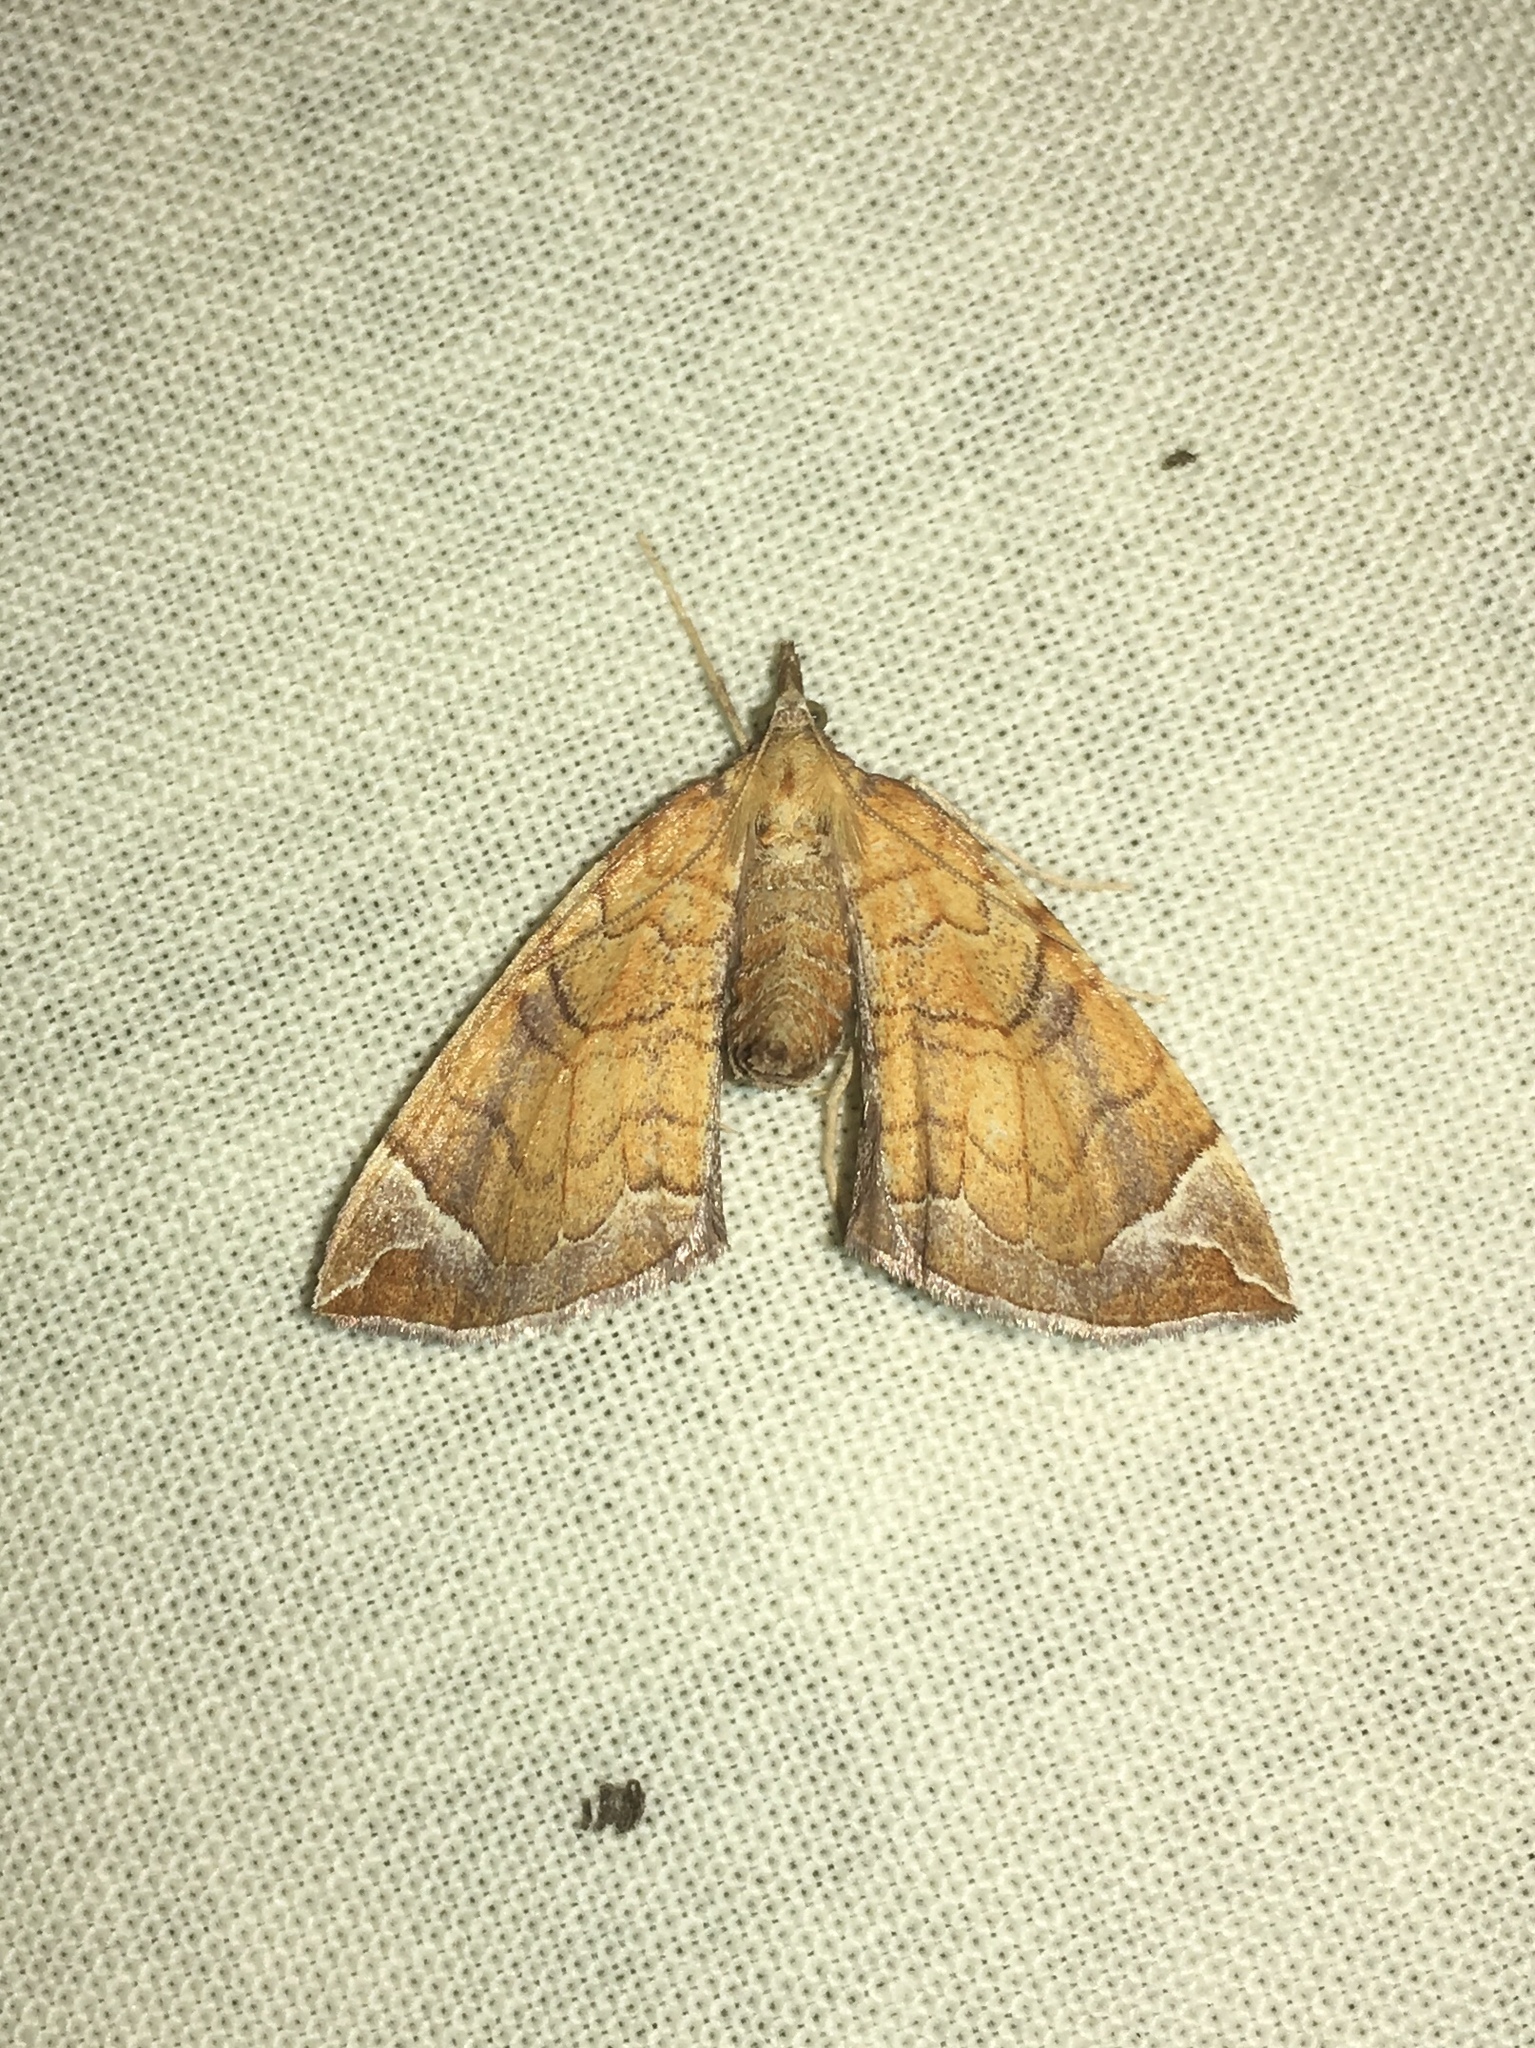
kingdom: Animalia
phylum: Arthropoda
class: Insecta
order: Lepidoptera
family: Geometridae
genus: Eulithis
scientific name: Eulithis testata
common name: Chevron
